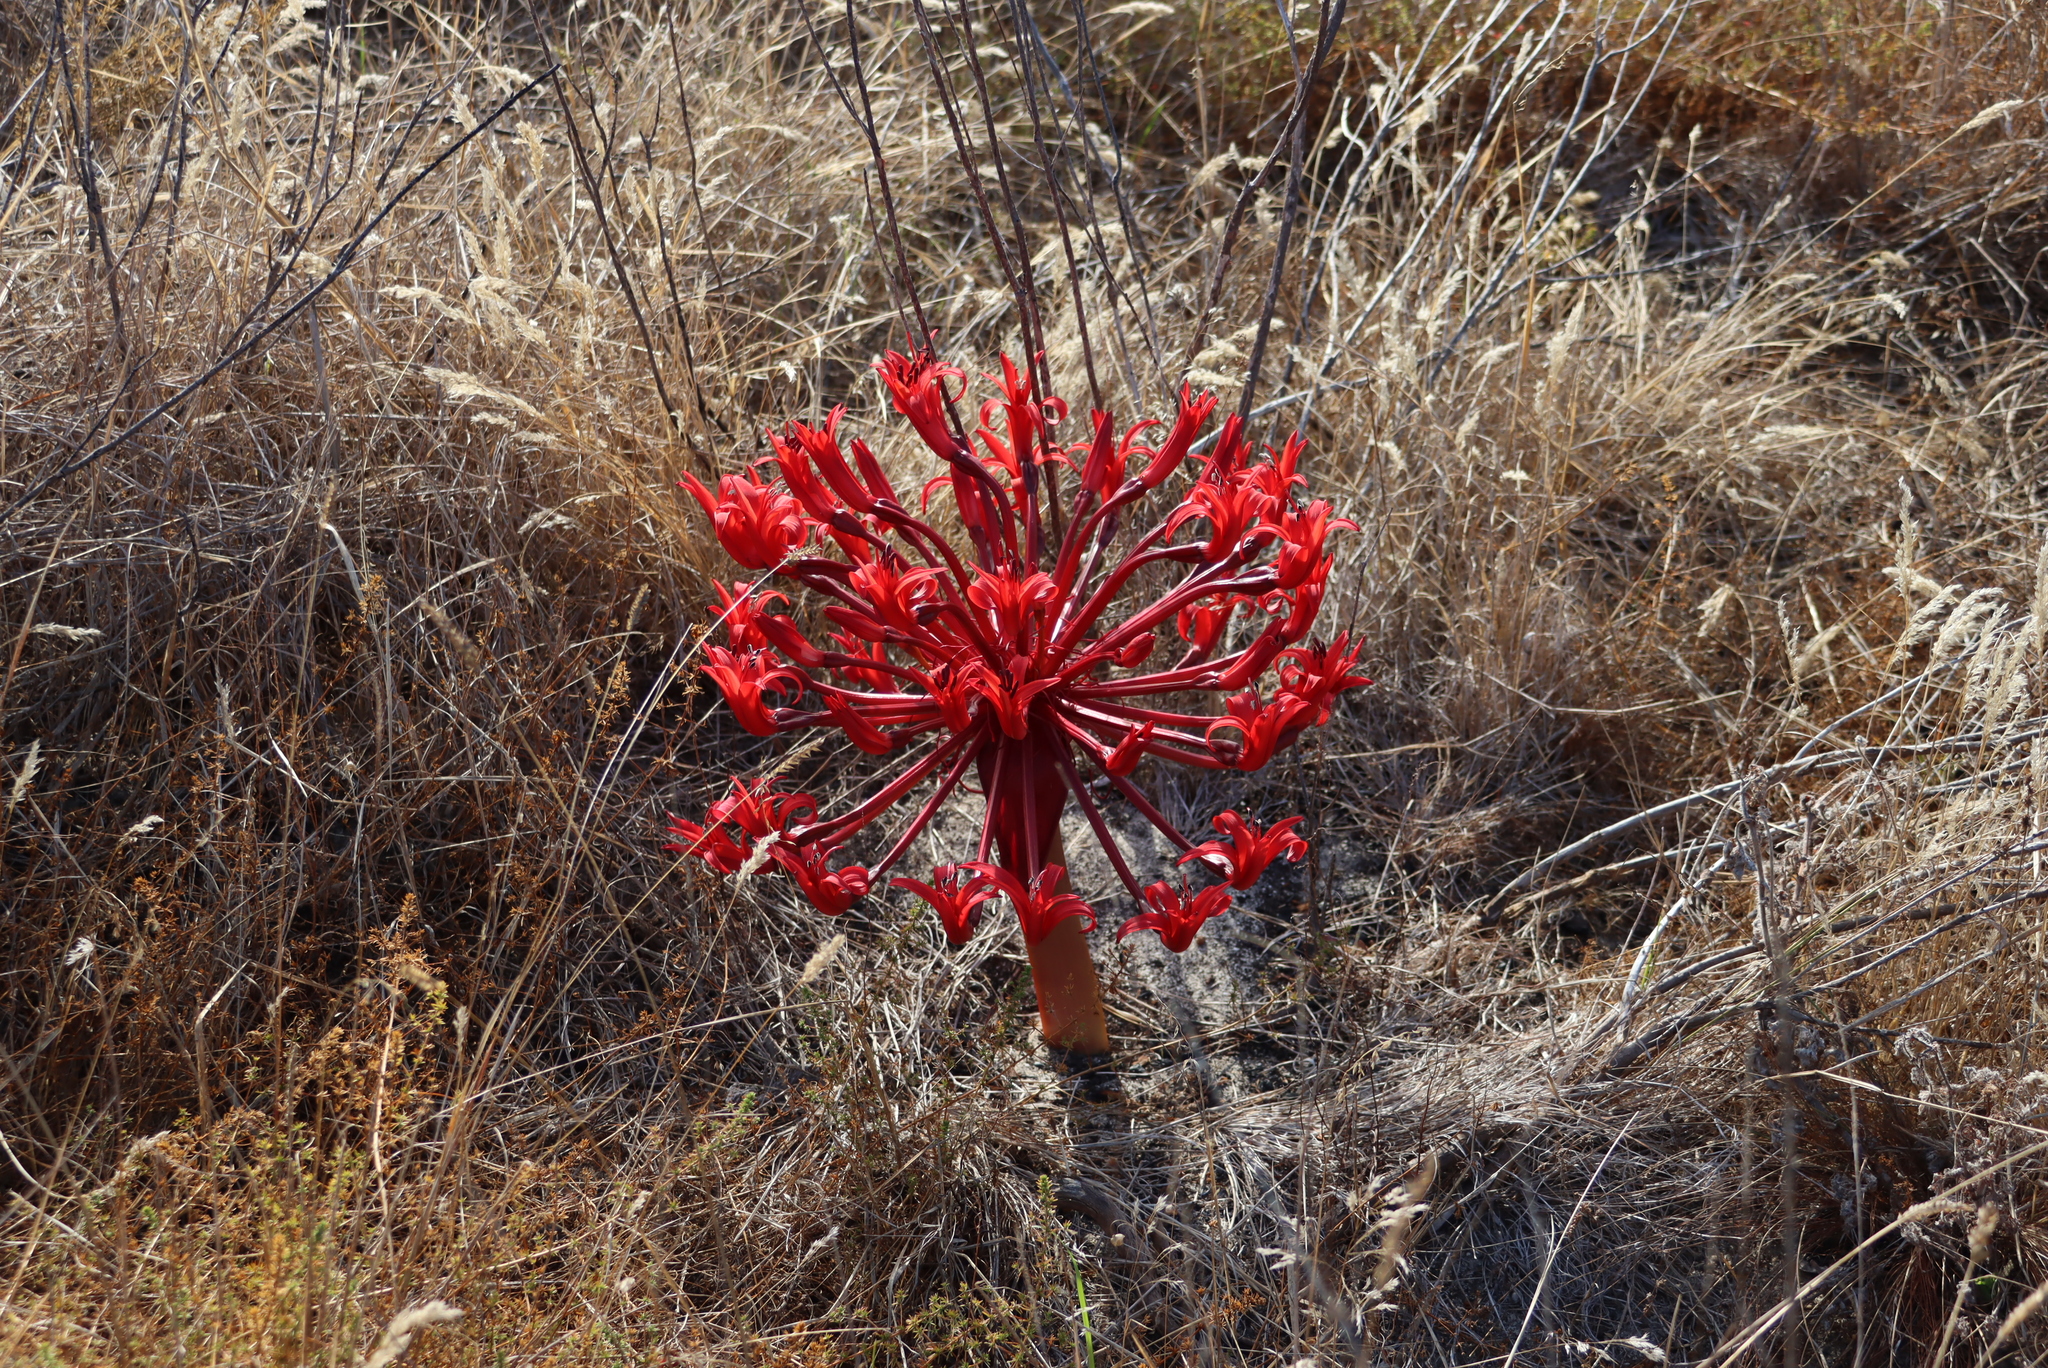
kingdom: Plantae
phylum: Tracheophyta
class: Liliopsida
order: Asparagales
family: Amaryllidaceae
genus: Brunsvigia
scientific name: Brunsvigia orientalis
